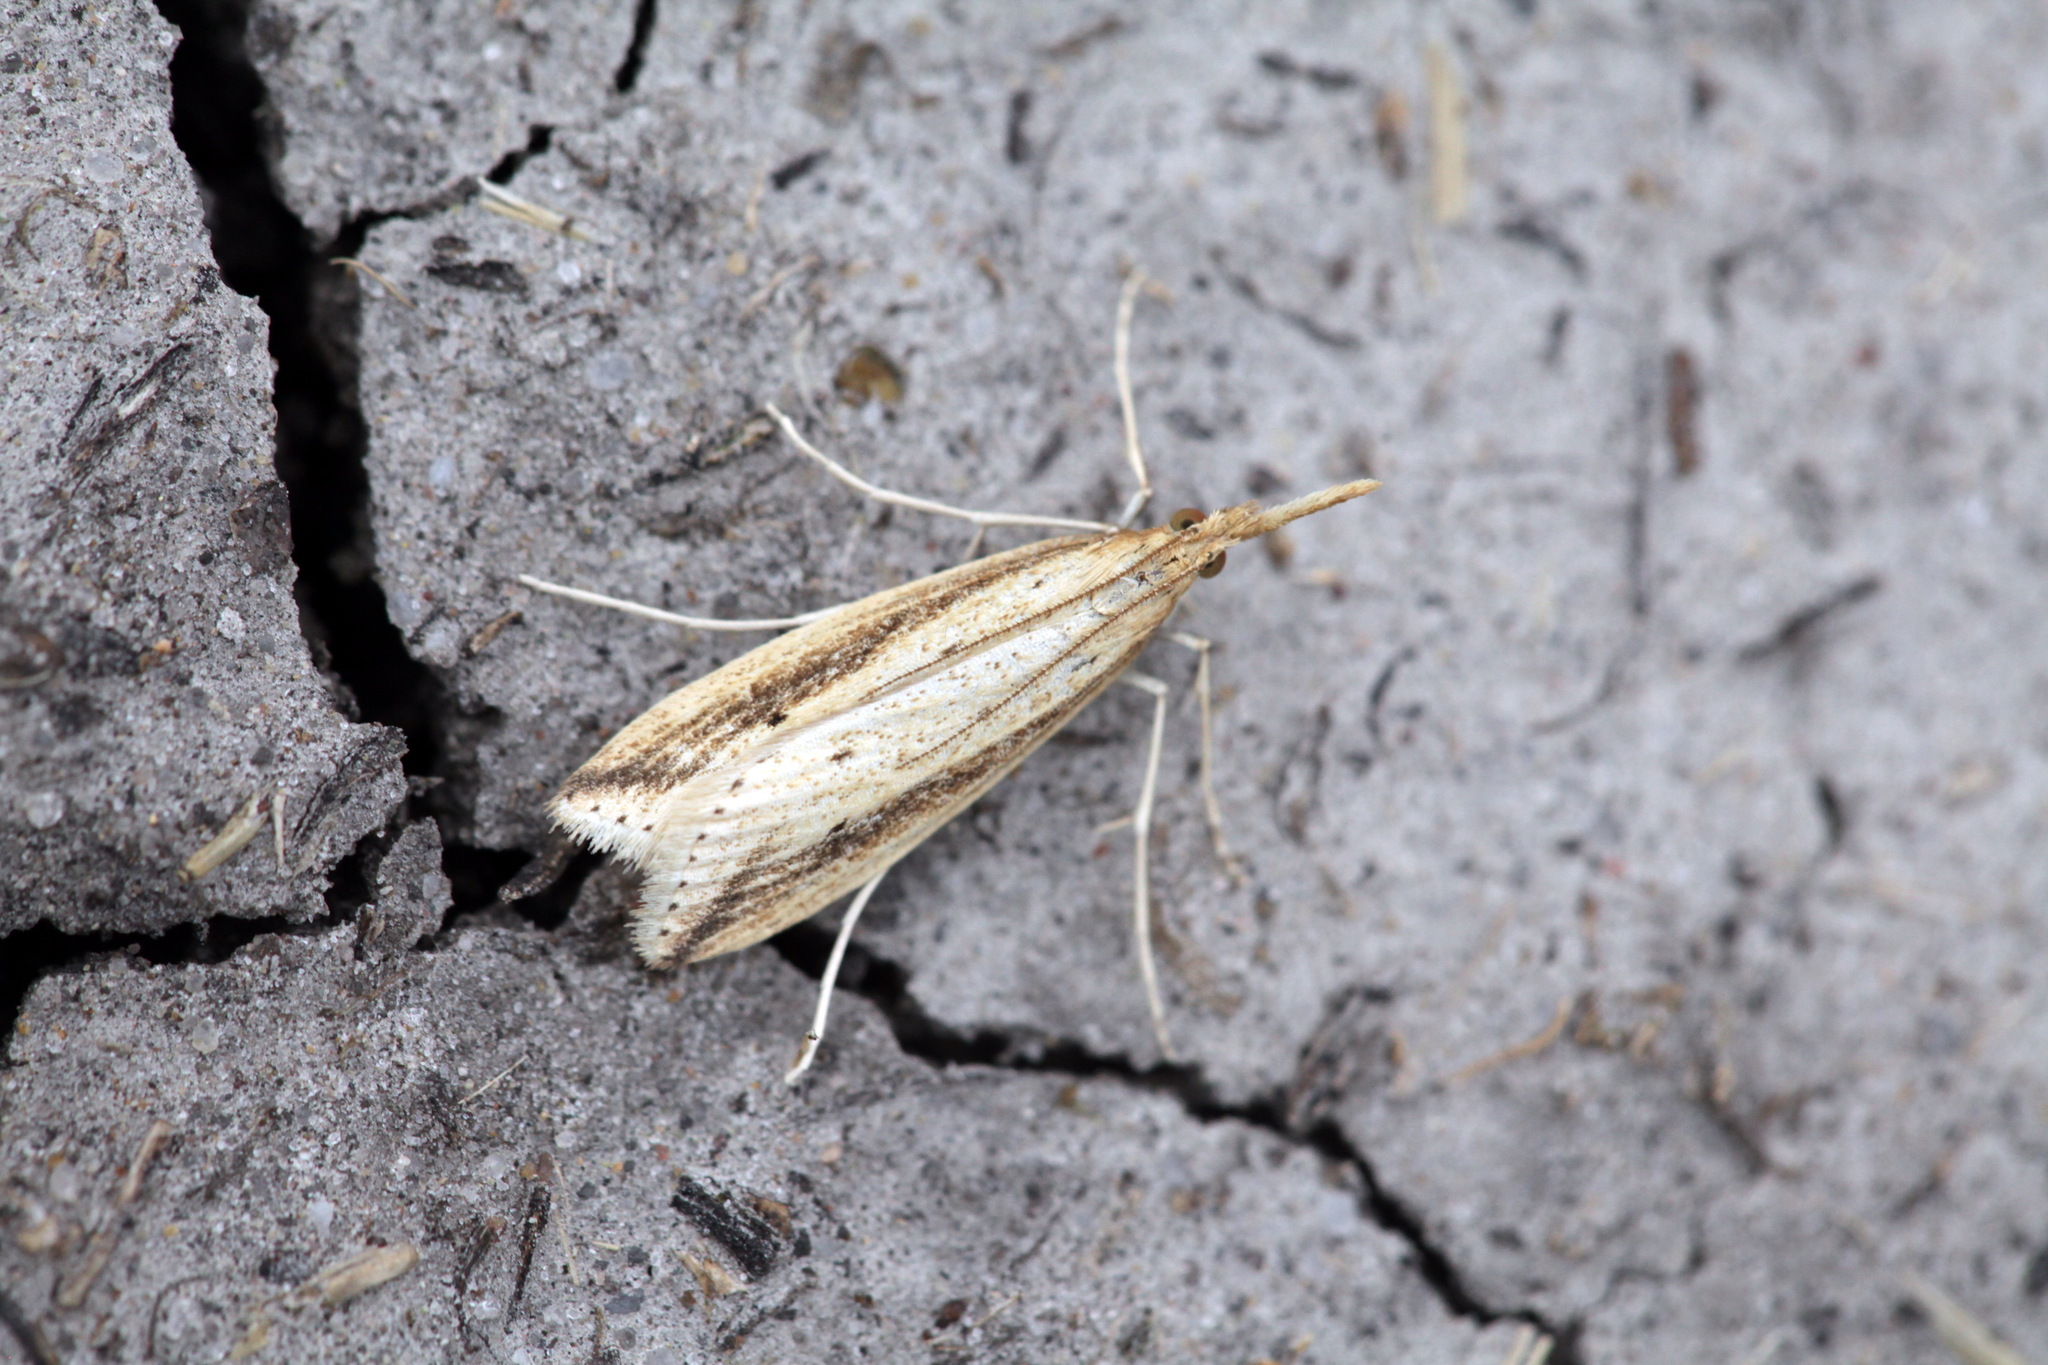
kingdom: Animalia
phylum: Arthropoda
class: Insecta
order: Lepidoptera
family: Crambidae
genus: Donacaula
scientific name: Donacaula forficella
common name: Pale water-veneer
